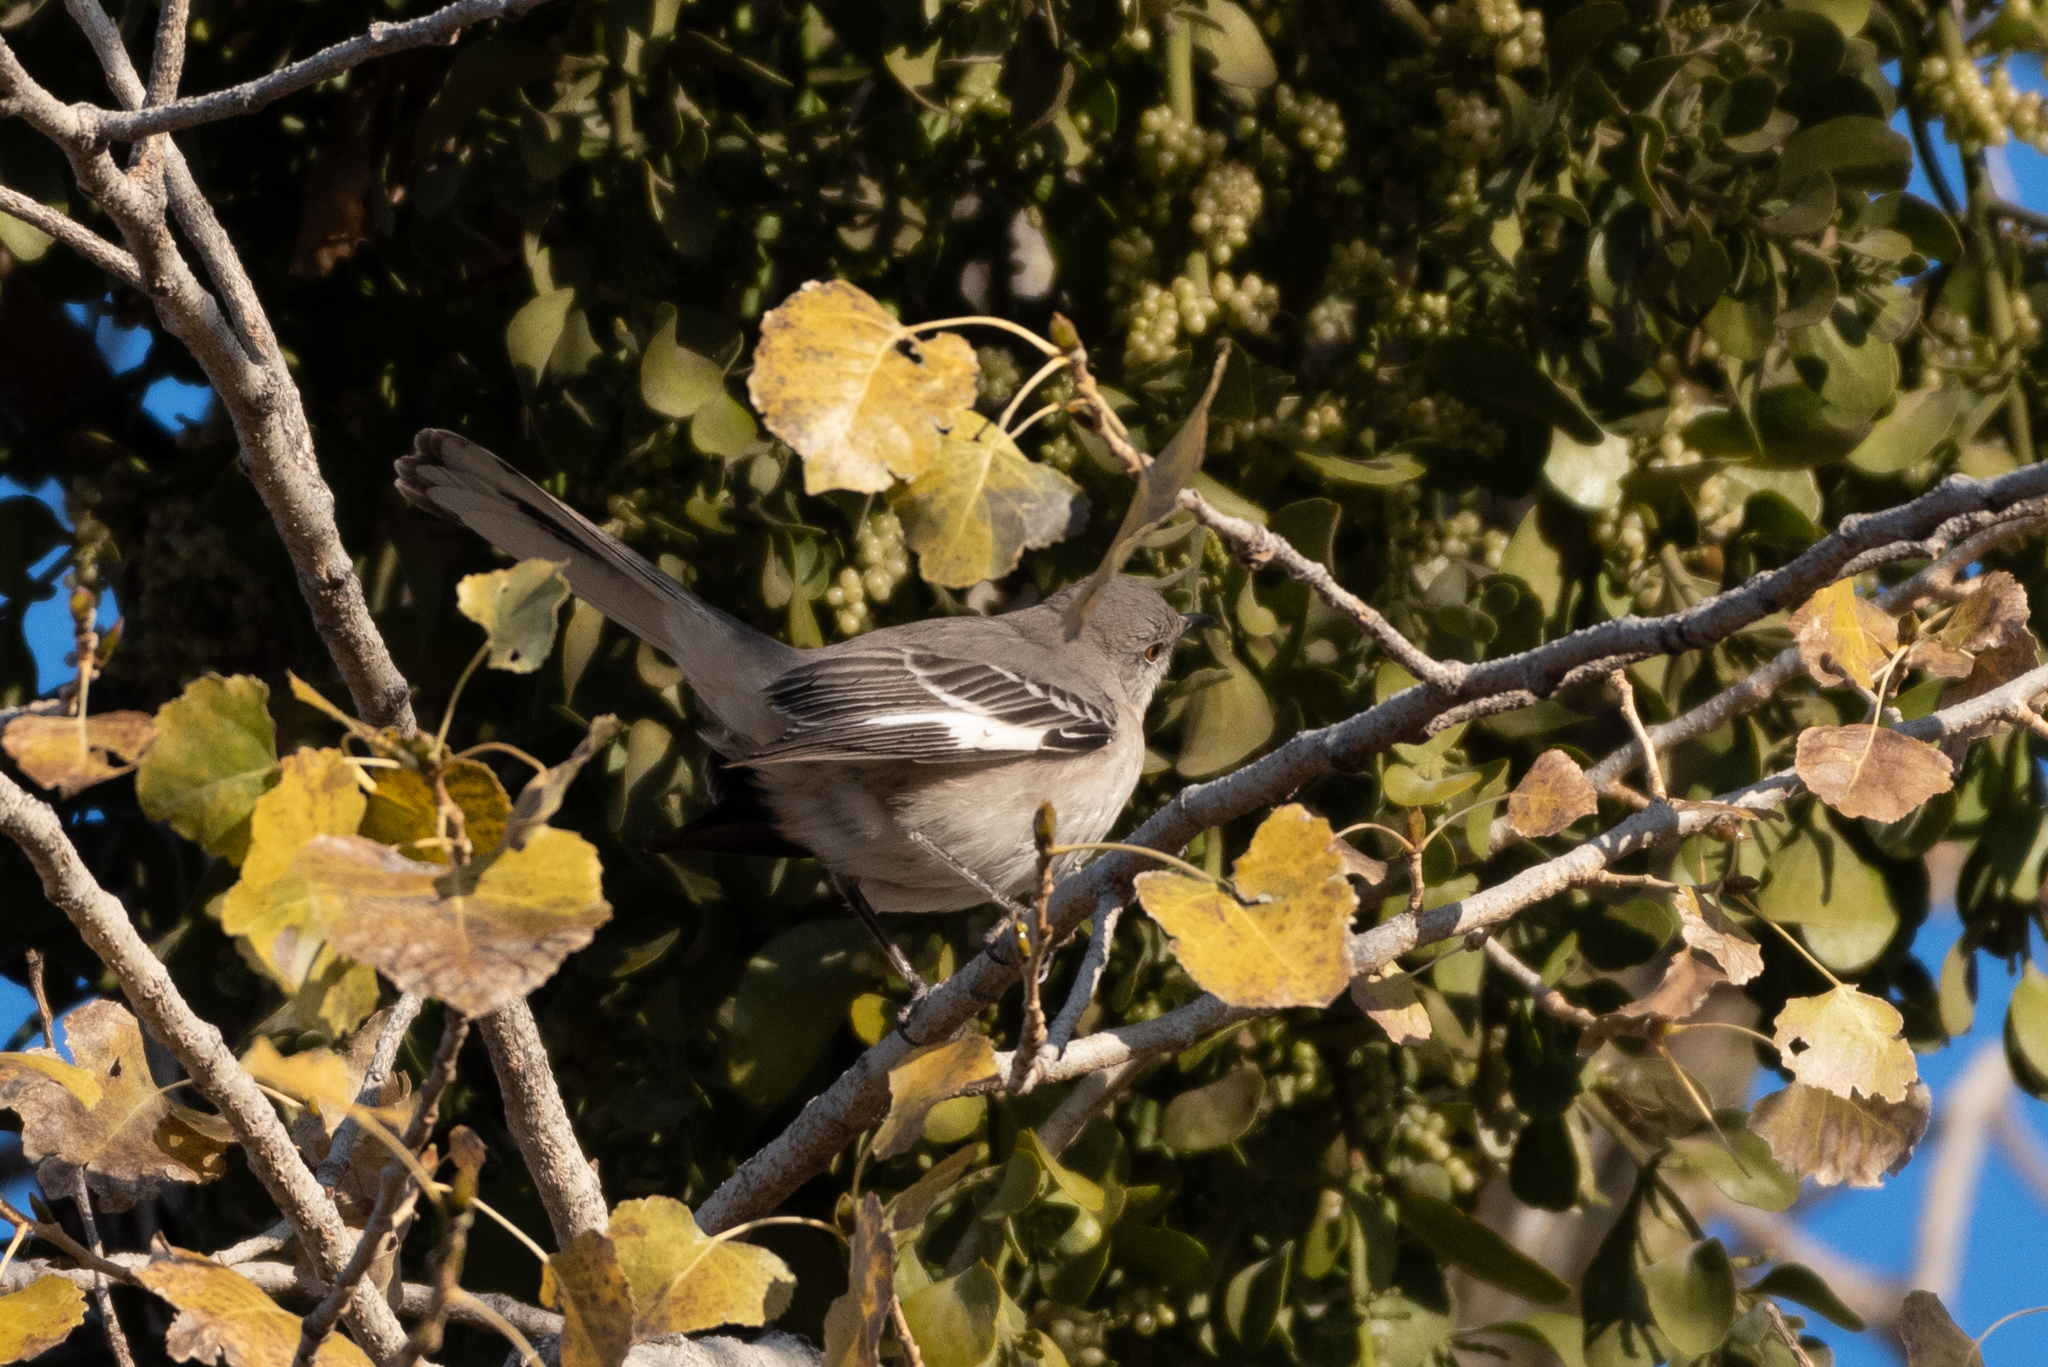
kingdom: Animalia
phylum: Chordata
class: Aves
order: Passeriformes
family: Mimidae
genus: Mimus
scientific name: Mimus polyglottos
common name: Northern mockingbird
